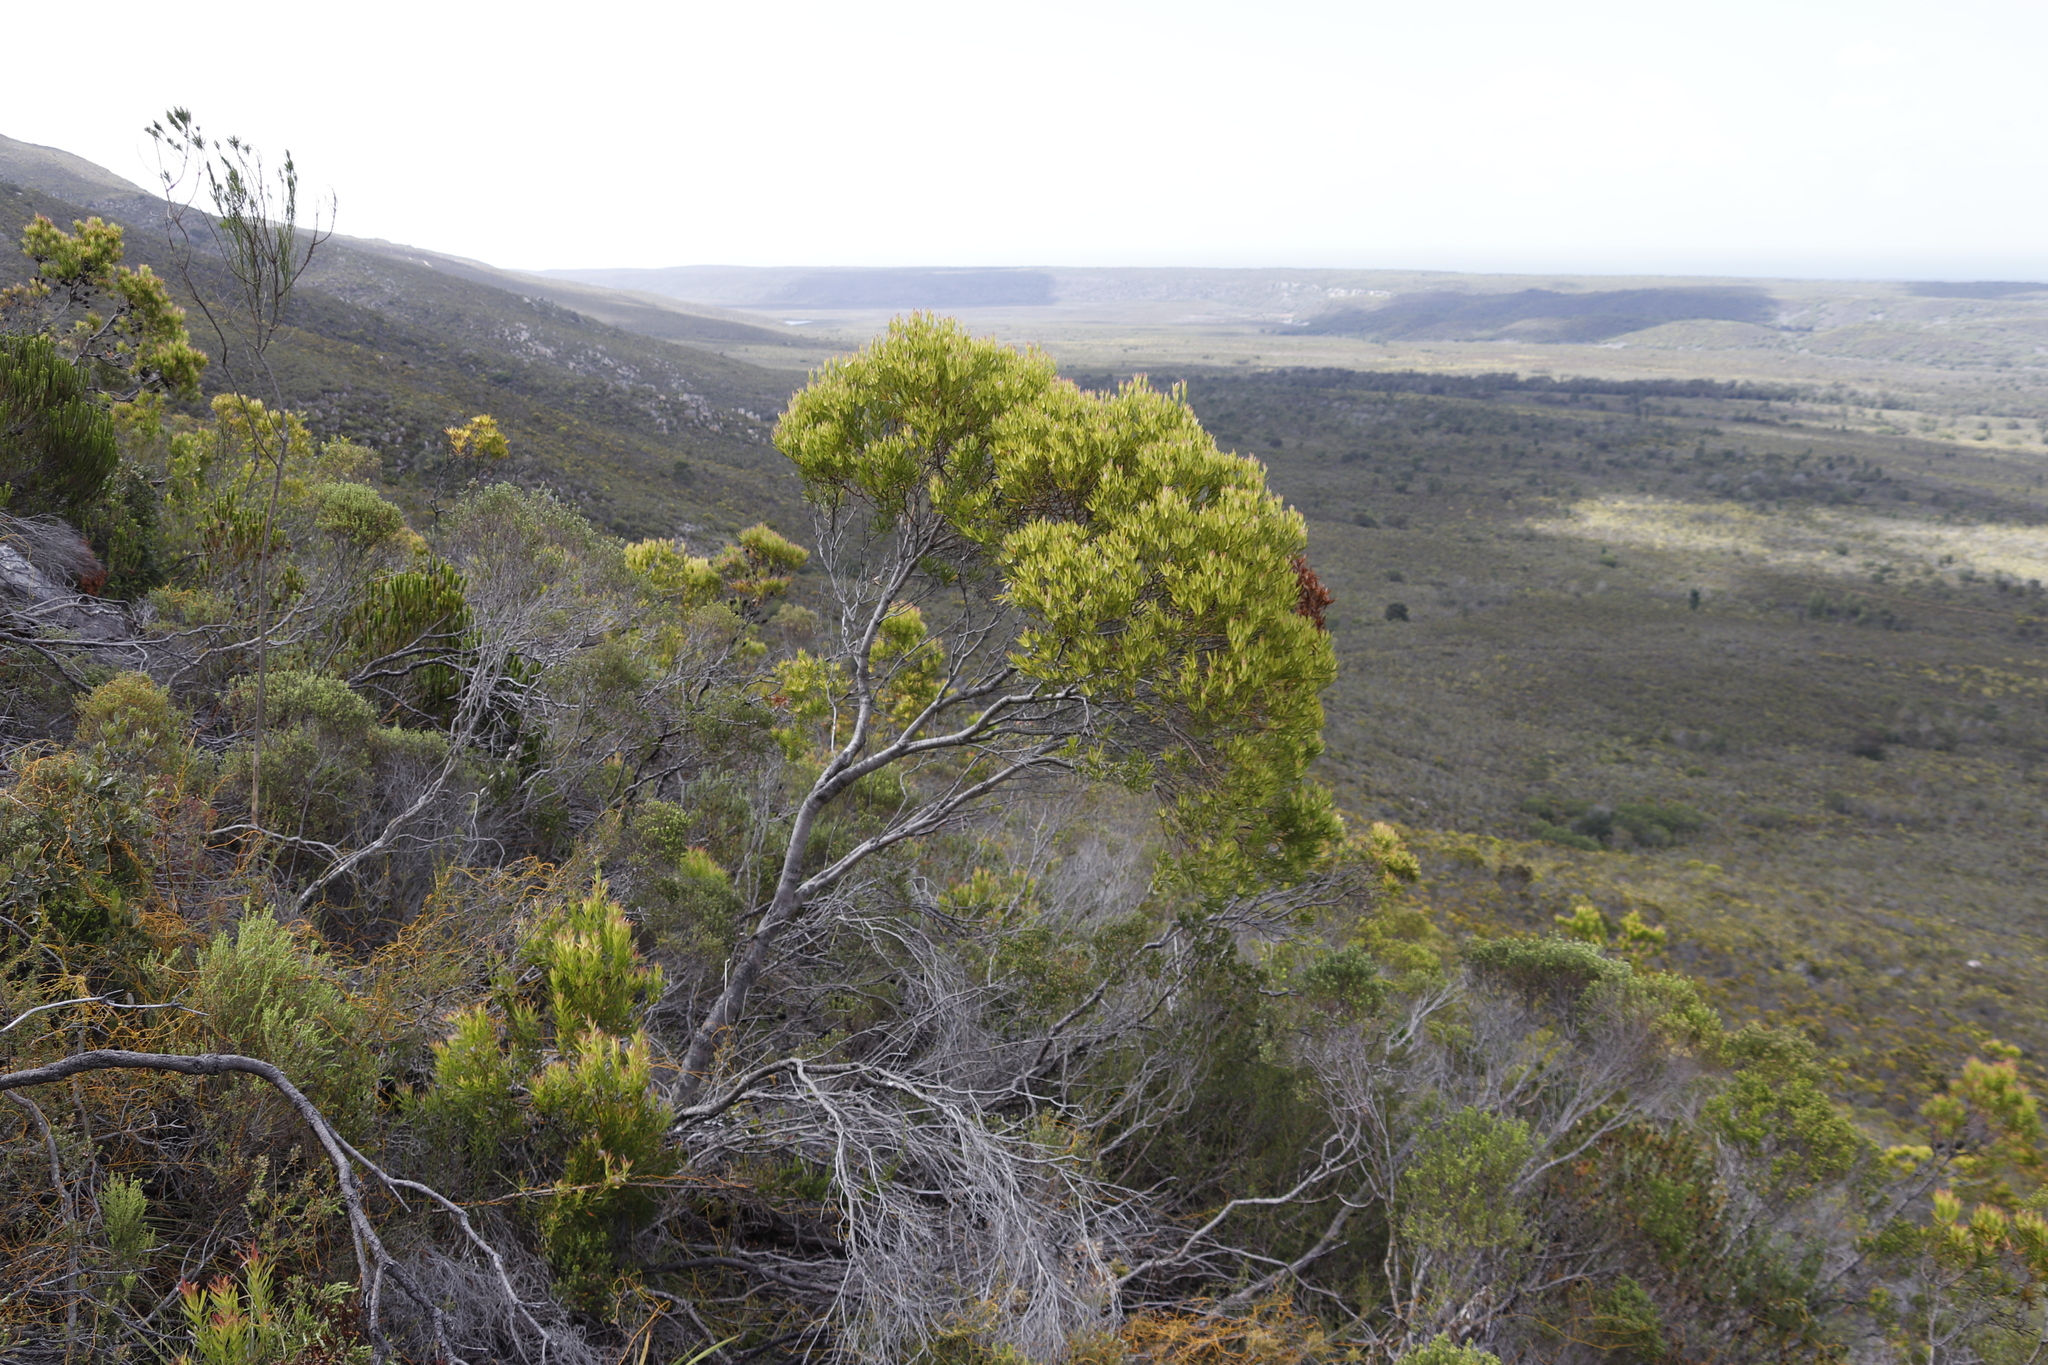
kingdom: Plantae
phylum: Tracheophyta
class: Magnoliopsida
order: Proteales
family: Proteaceae
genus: Leucadendron
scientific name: Leucadendron xanthoconus
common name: Sickle-leaf conebush
